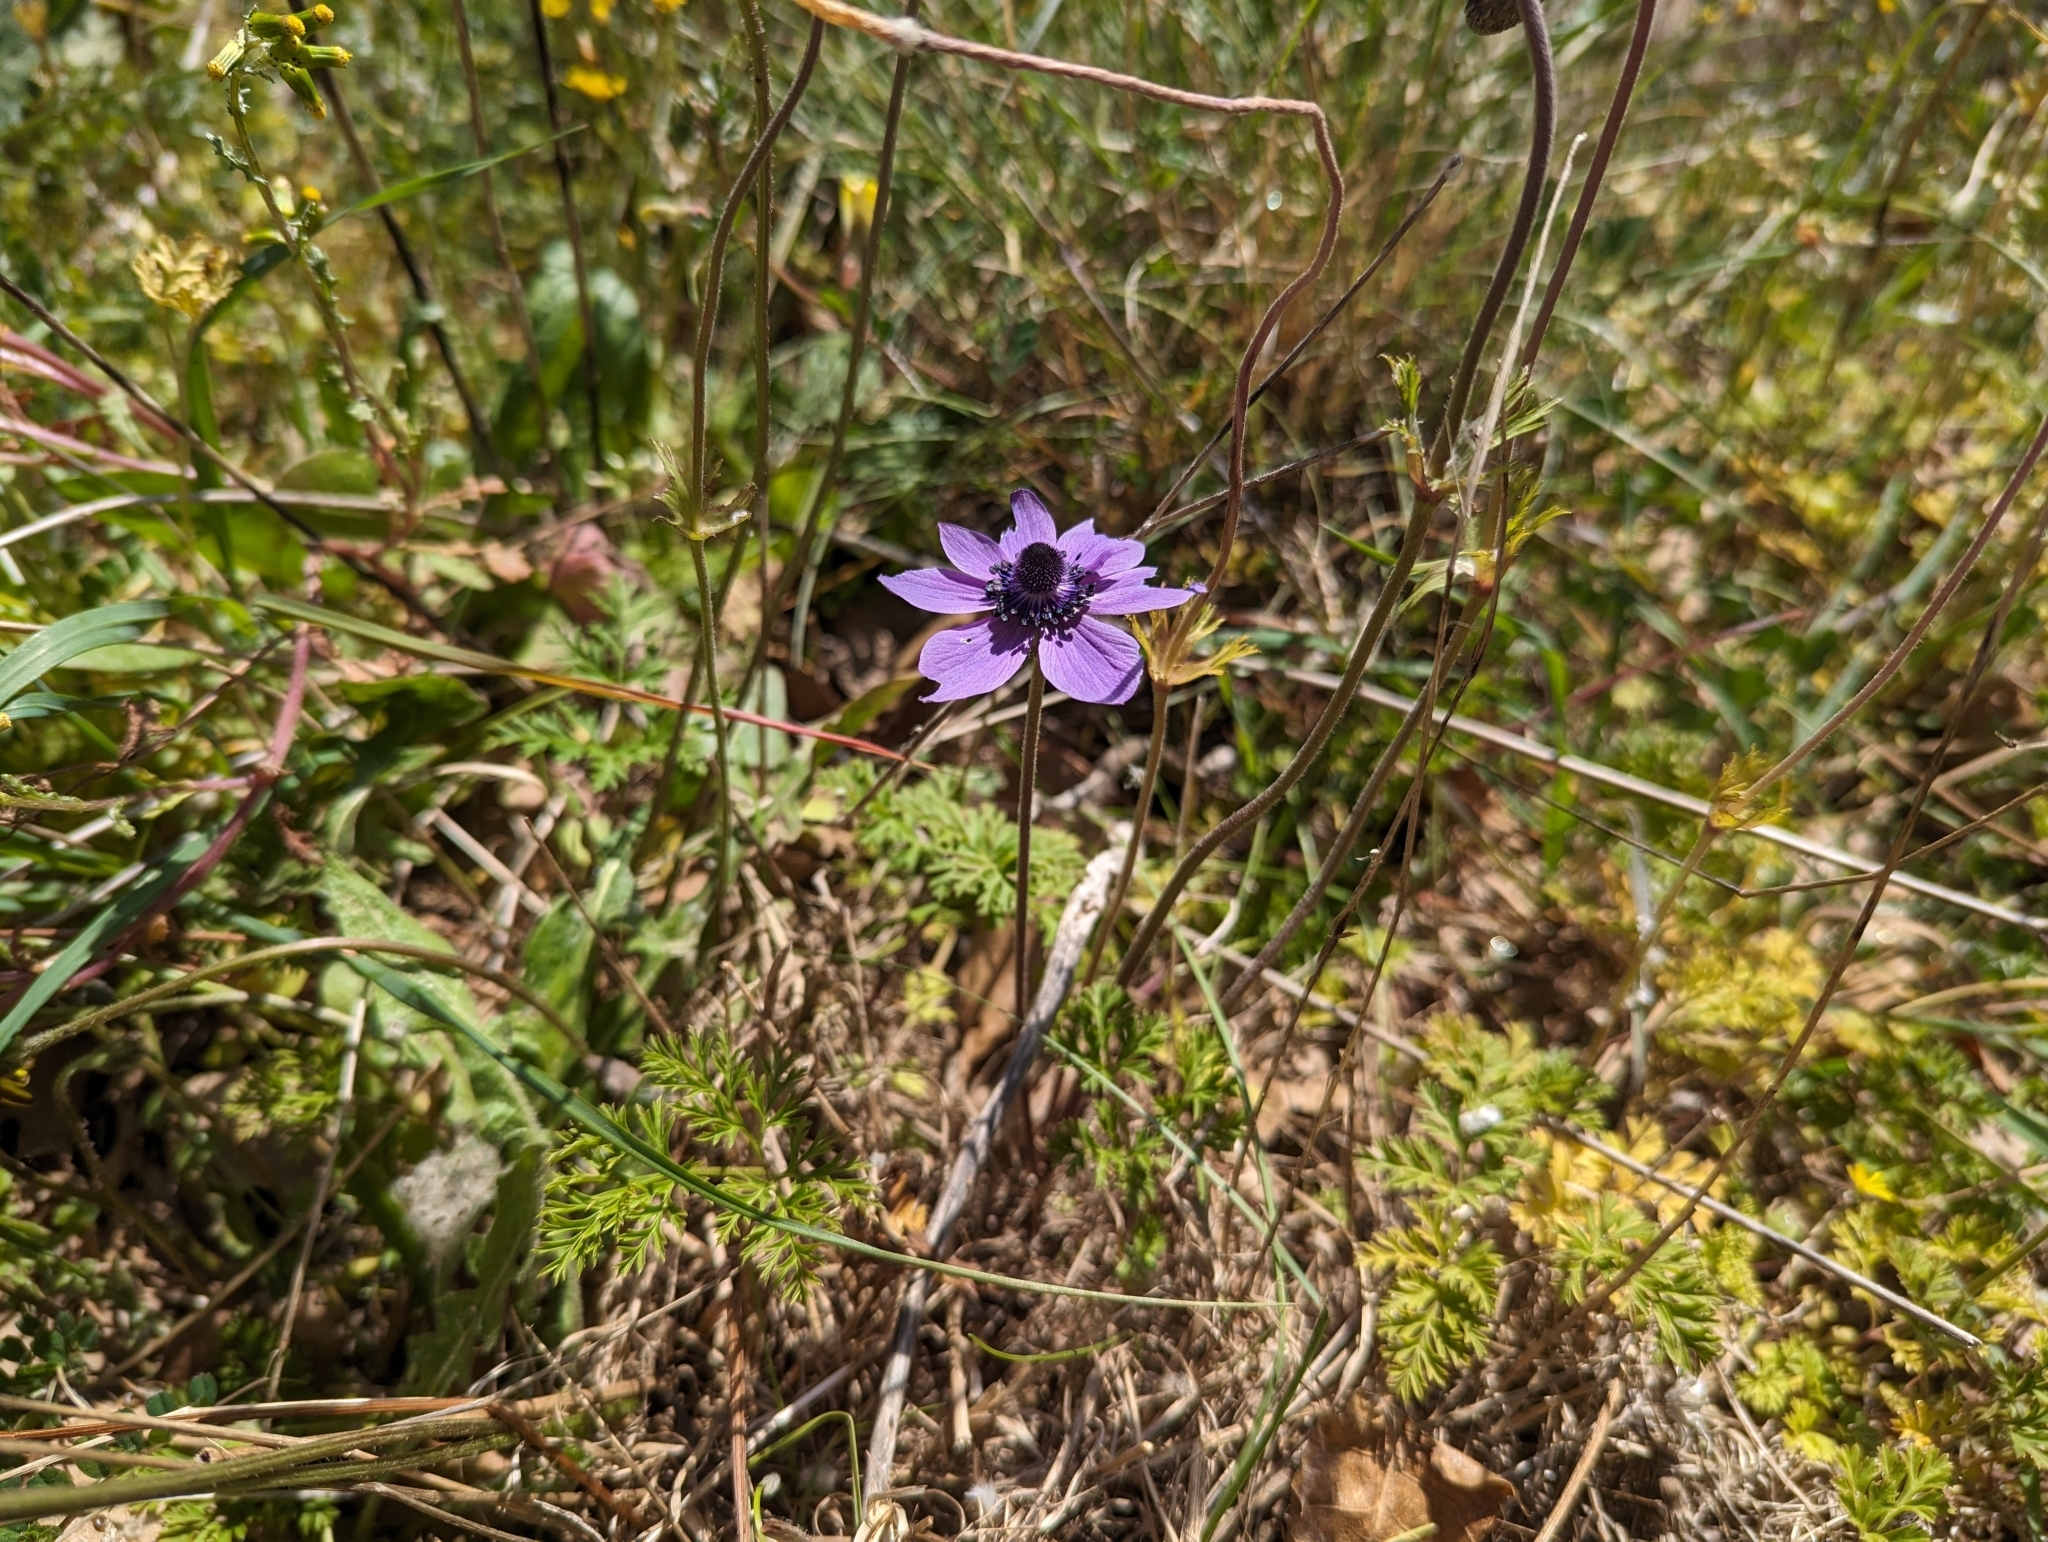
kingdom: Plantae
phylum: Tracheophyta
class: Magnoliopsida
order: Ranunculales
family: Ranunculaceae
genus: Anemone
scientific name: Anemone coronaria
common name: Poppy anemone
